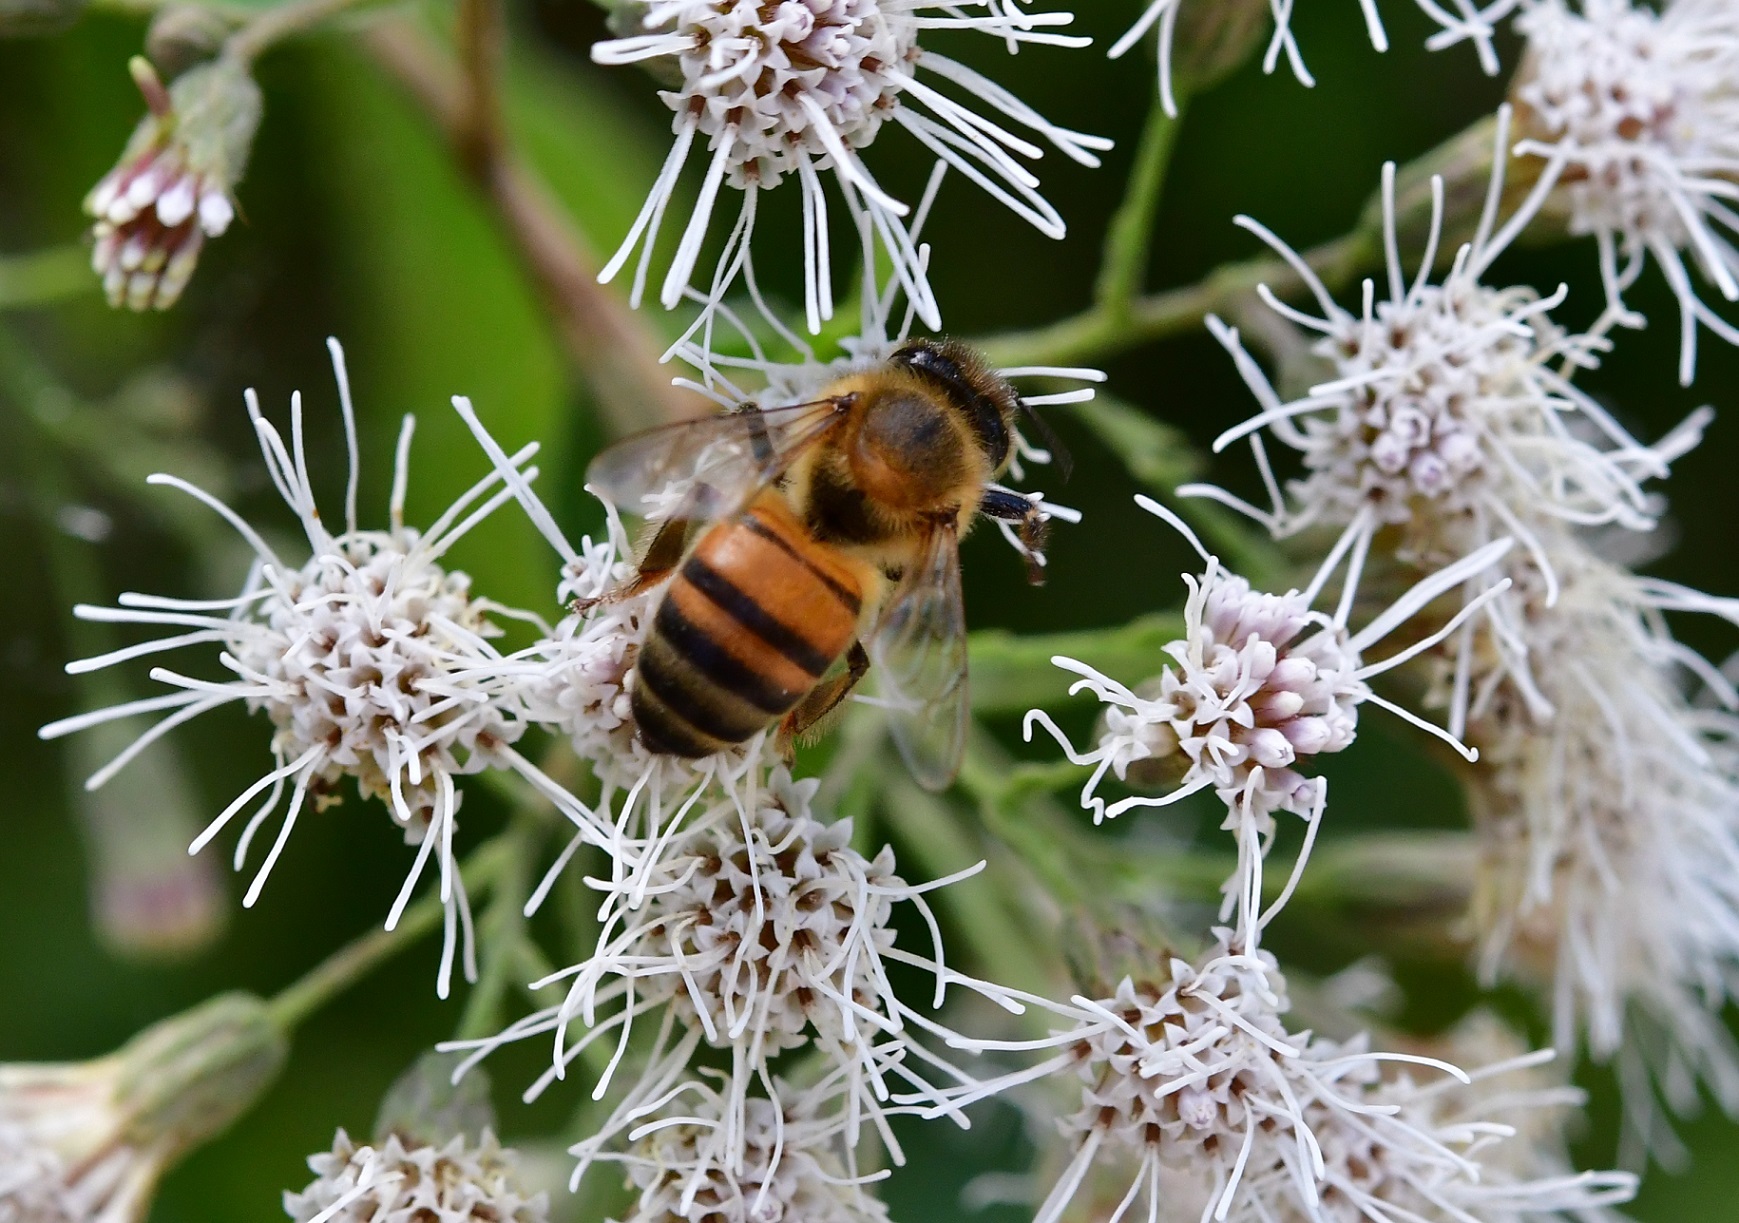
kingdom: Animalia
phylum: Arthropoda
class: Insecta
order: Hymenoptera
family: Apidae
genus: Apis
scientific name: Apis mellifera
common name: Honey bee
